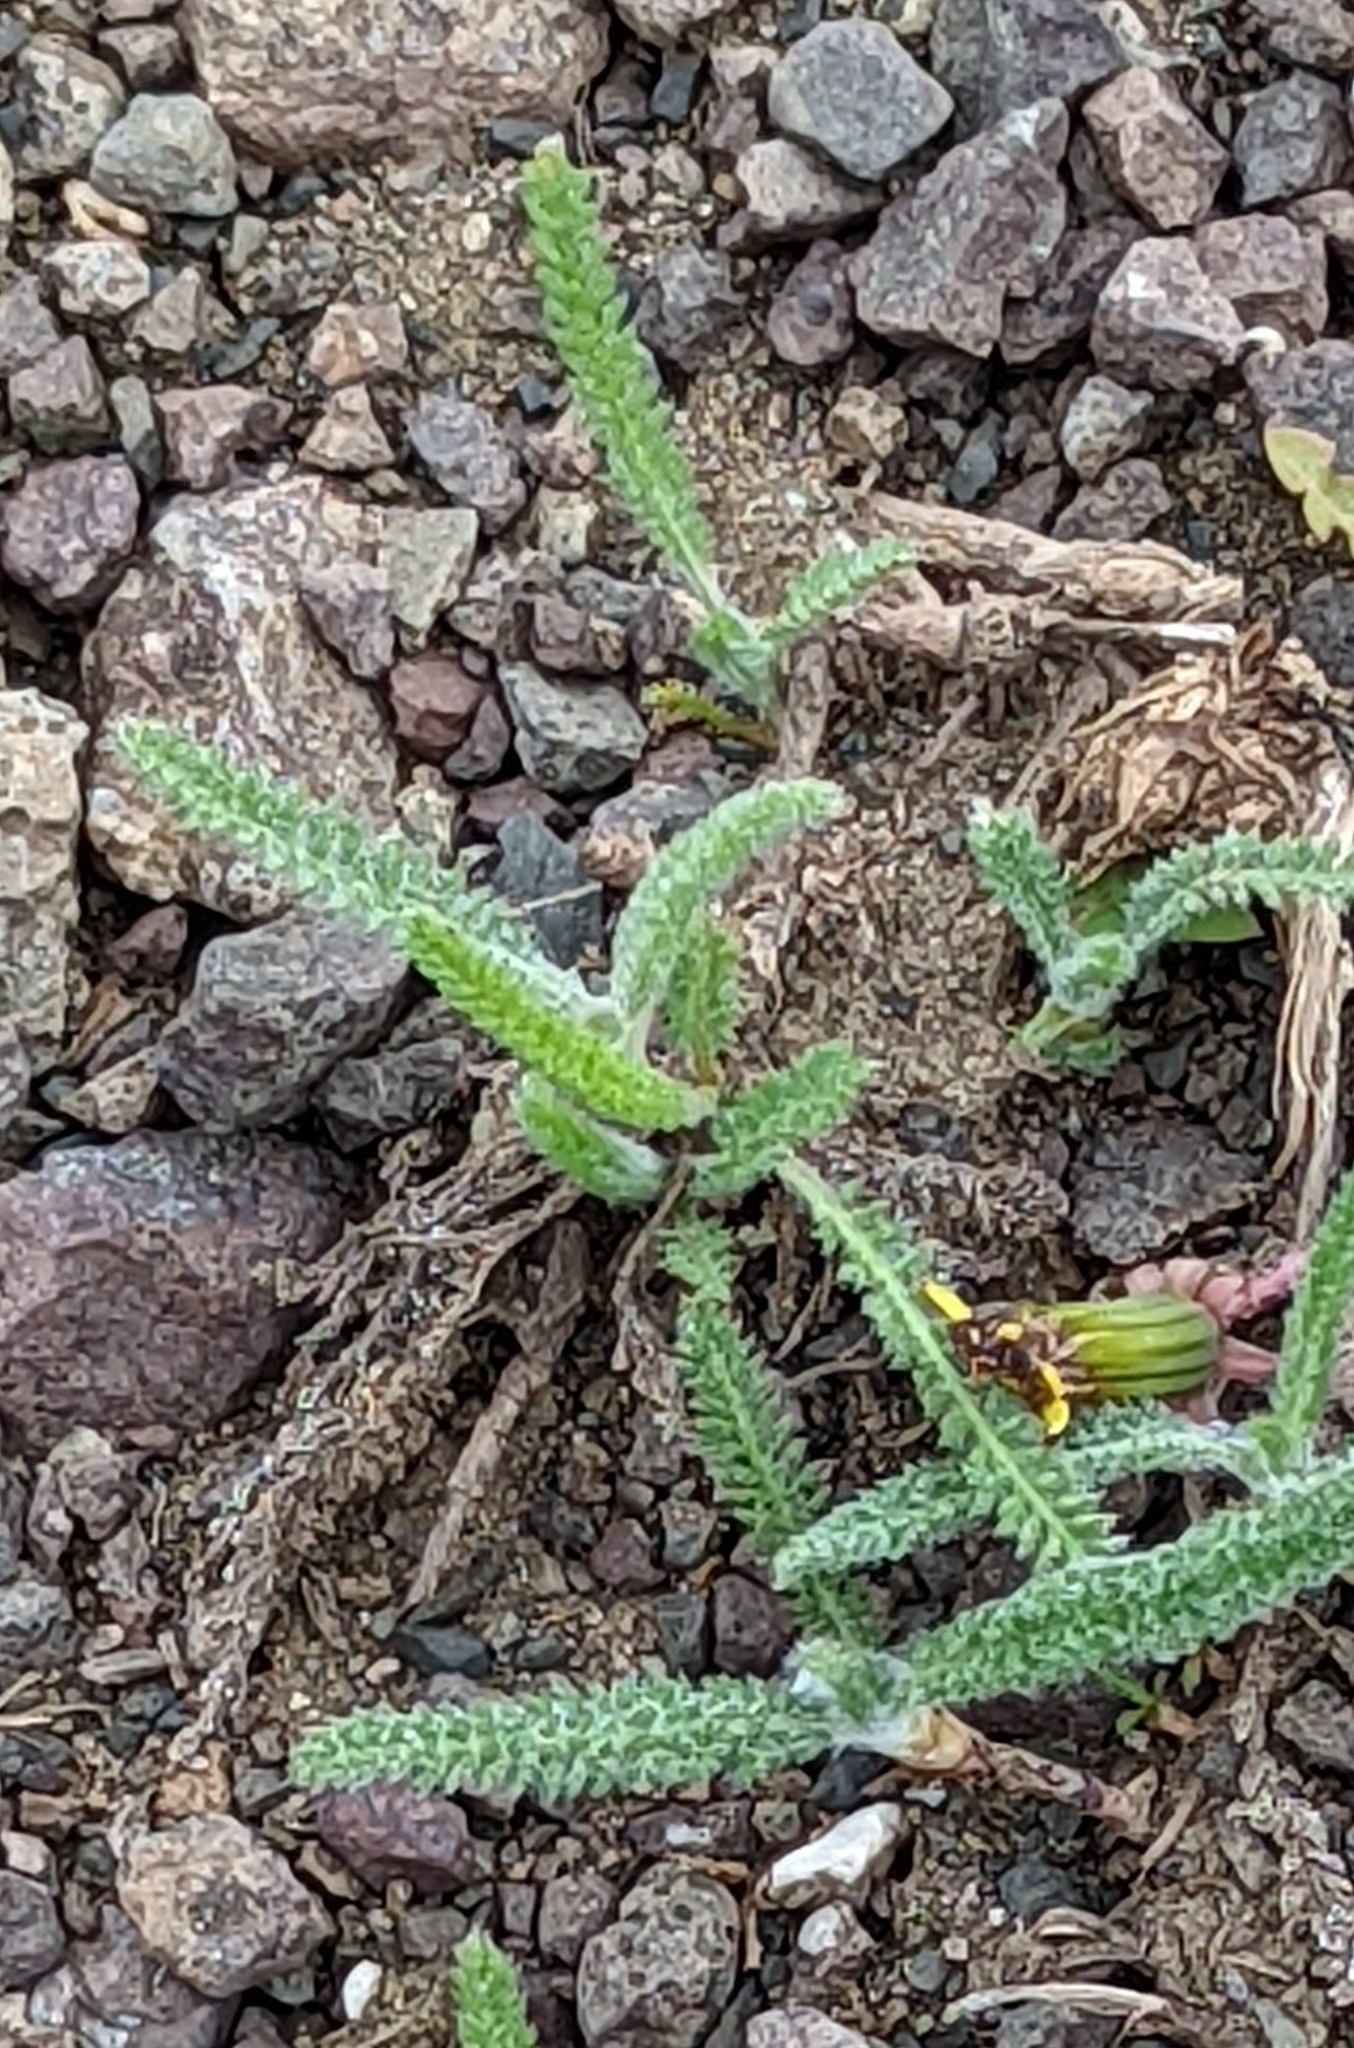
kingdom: Plantae
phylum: Tracheophyta
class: Magnoliopsida
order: Asterales
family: Asteraceae
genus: Achillea
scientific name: Achillea millefolium
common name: Yarrow
